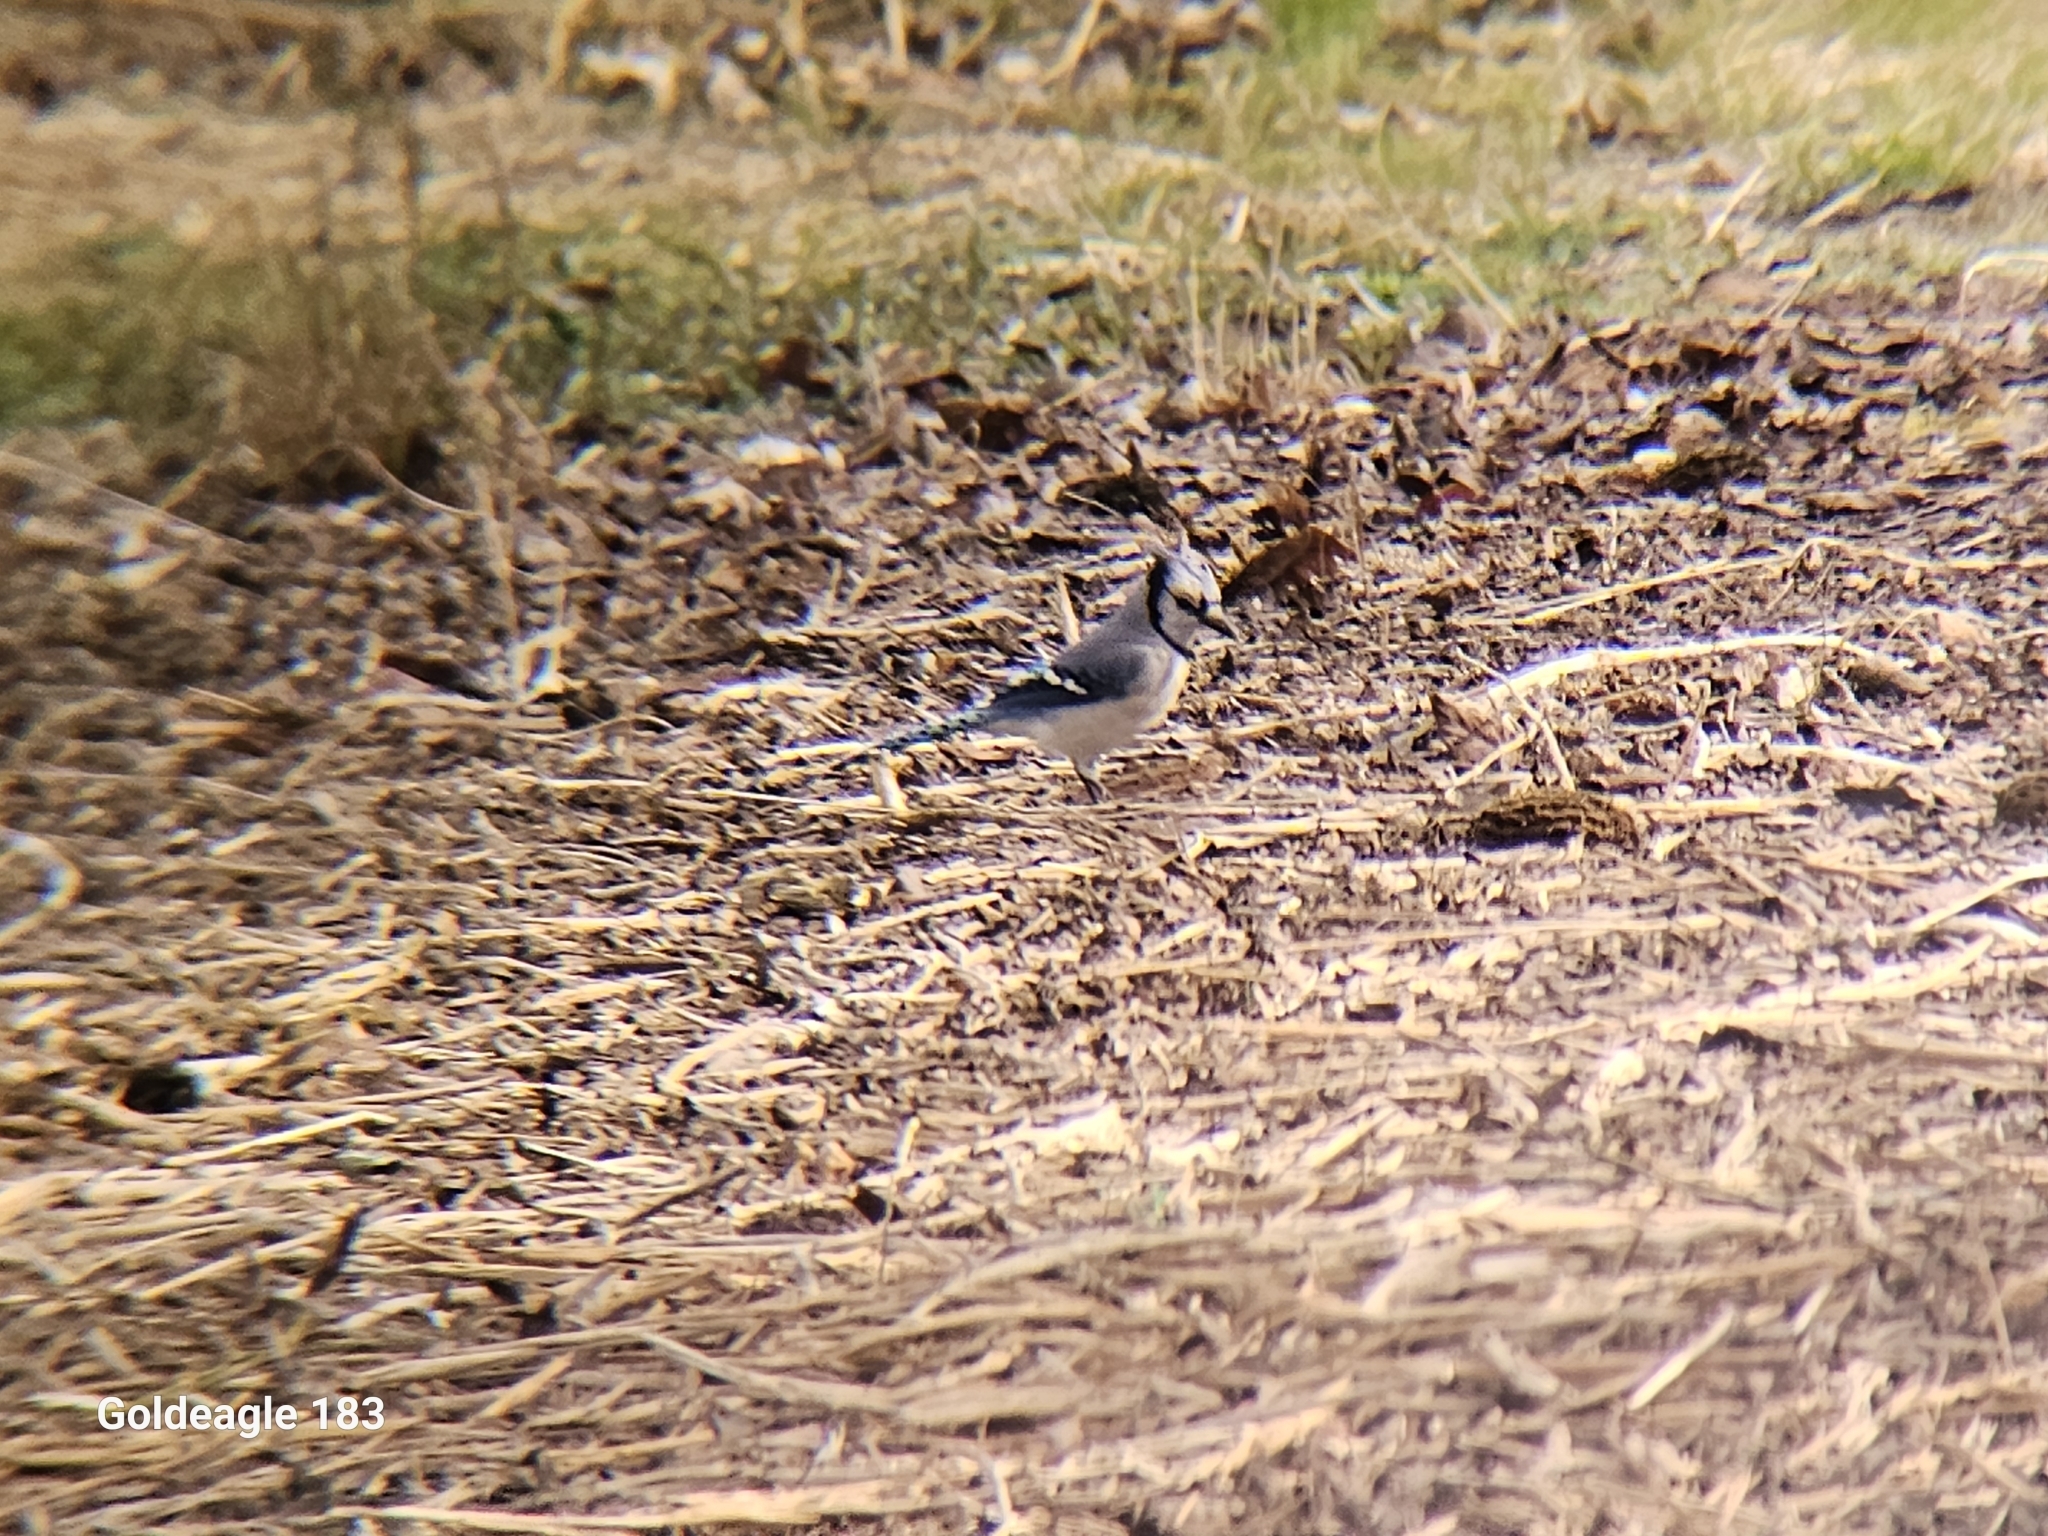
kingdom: Animalia
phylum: Chordata
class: Aves
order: Passeriformes
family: Corvidae
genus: Cyanocitta
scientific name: Cyanocitta cristata
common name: Blue jay
